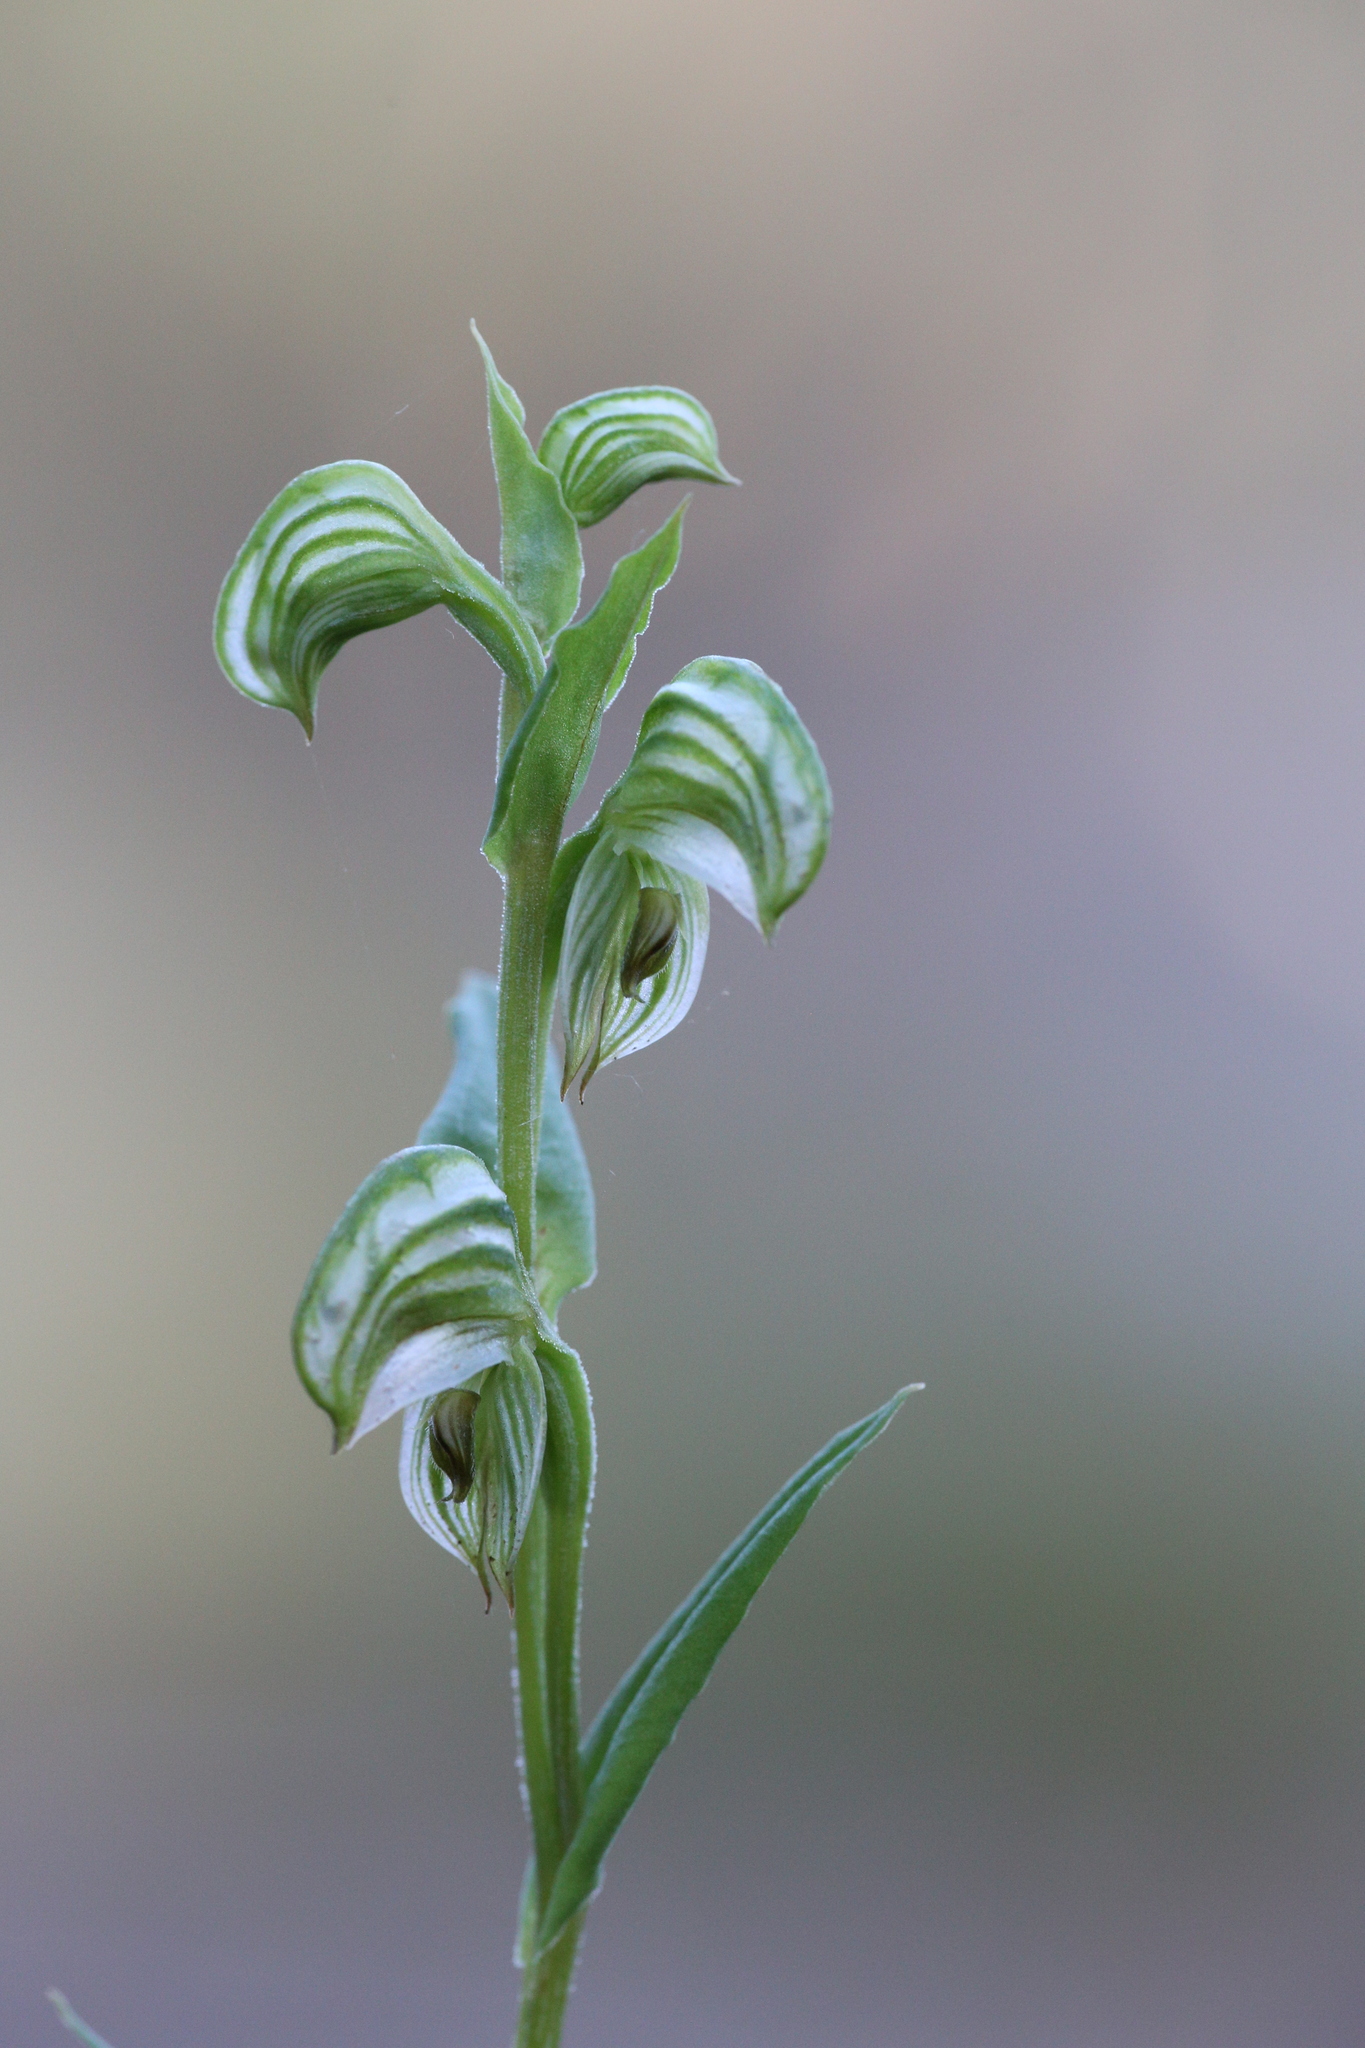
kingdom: Plantae
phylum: Tracheophyta
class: Liliopsida
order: Asparagales
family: Orchidaceae
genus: Pterostylis
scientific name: Pterostylis vittata
